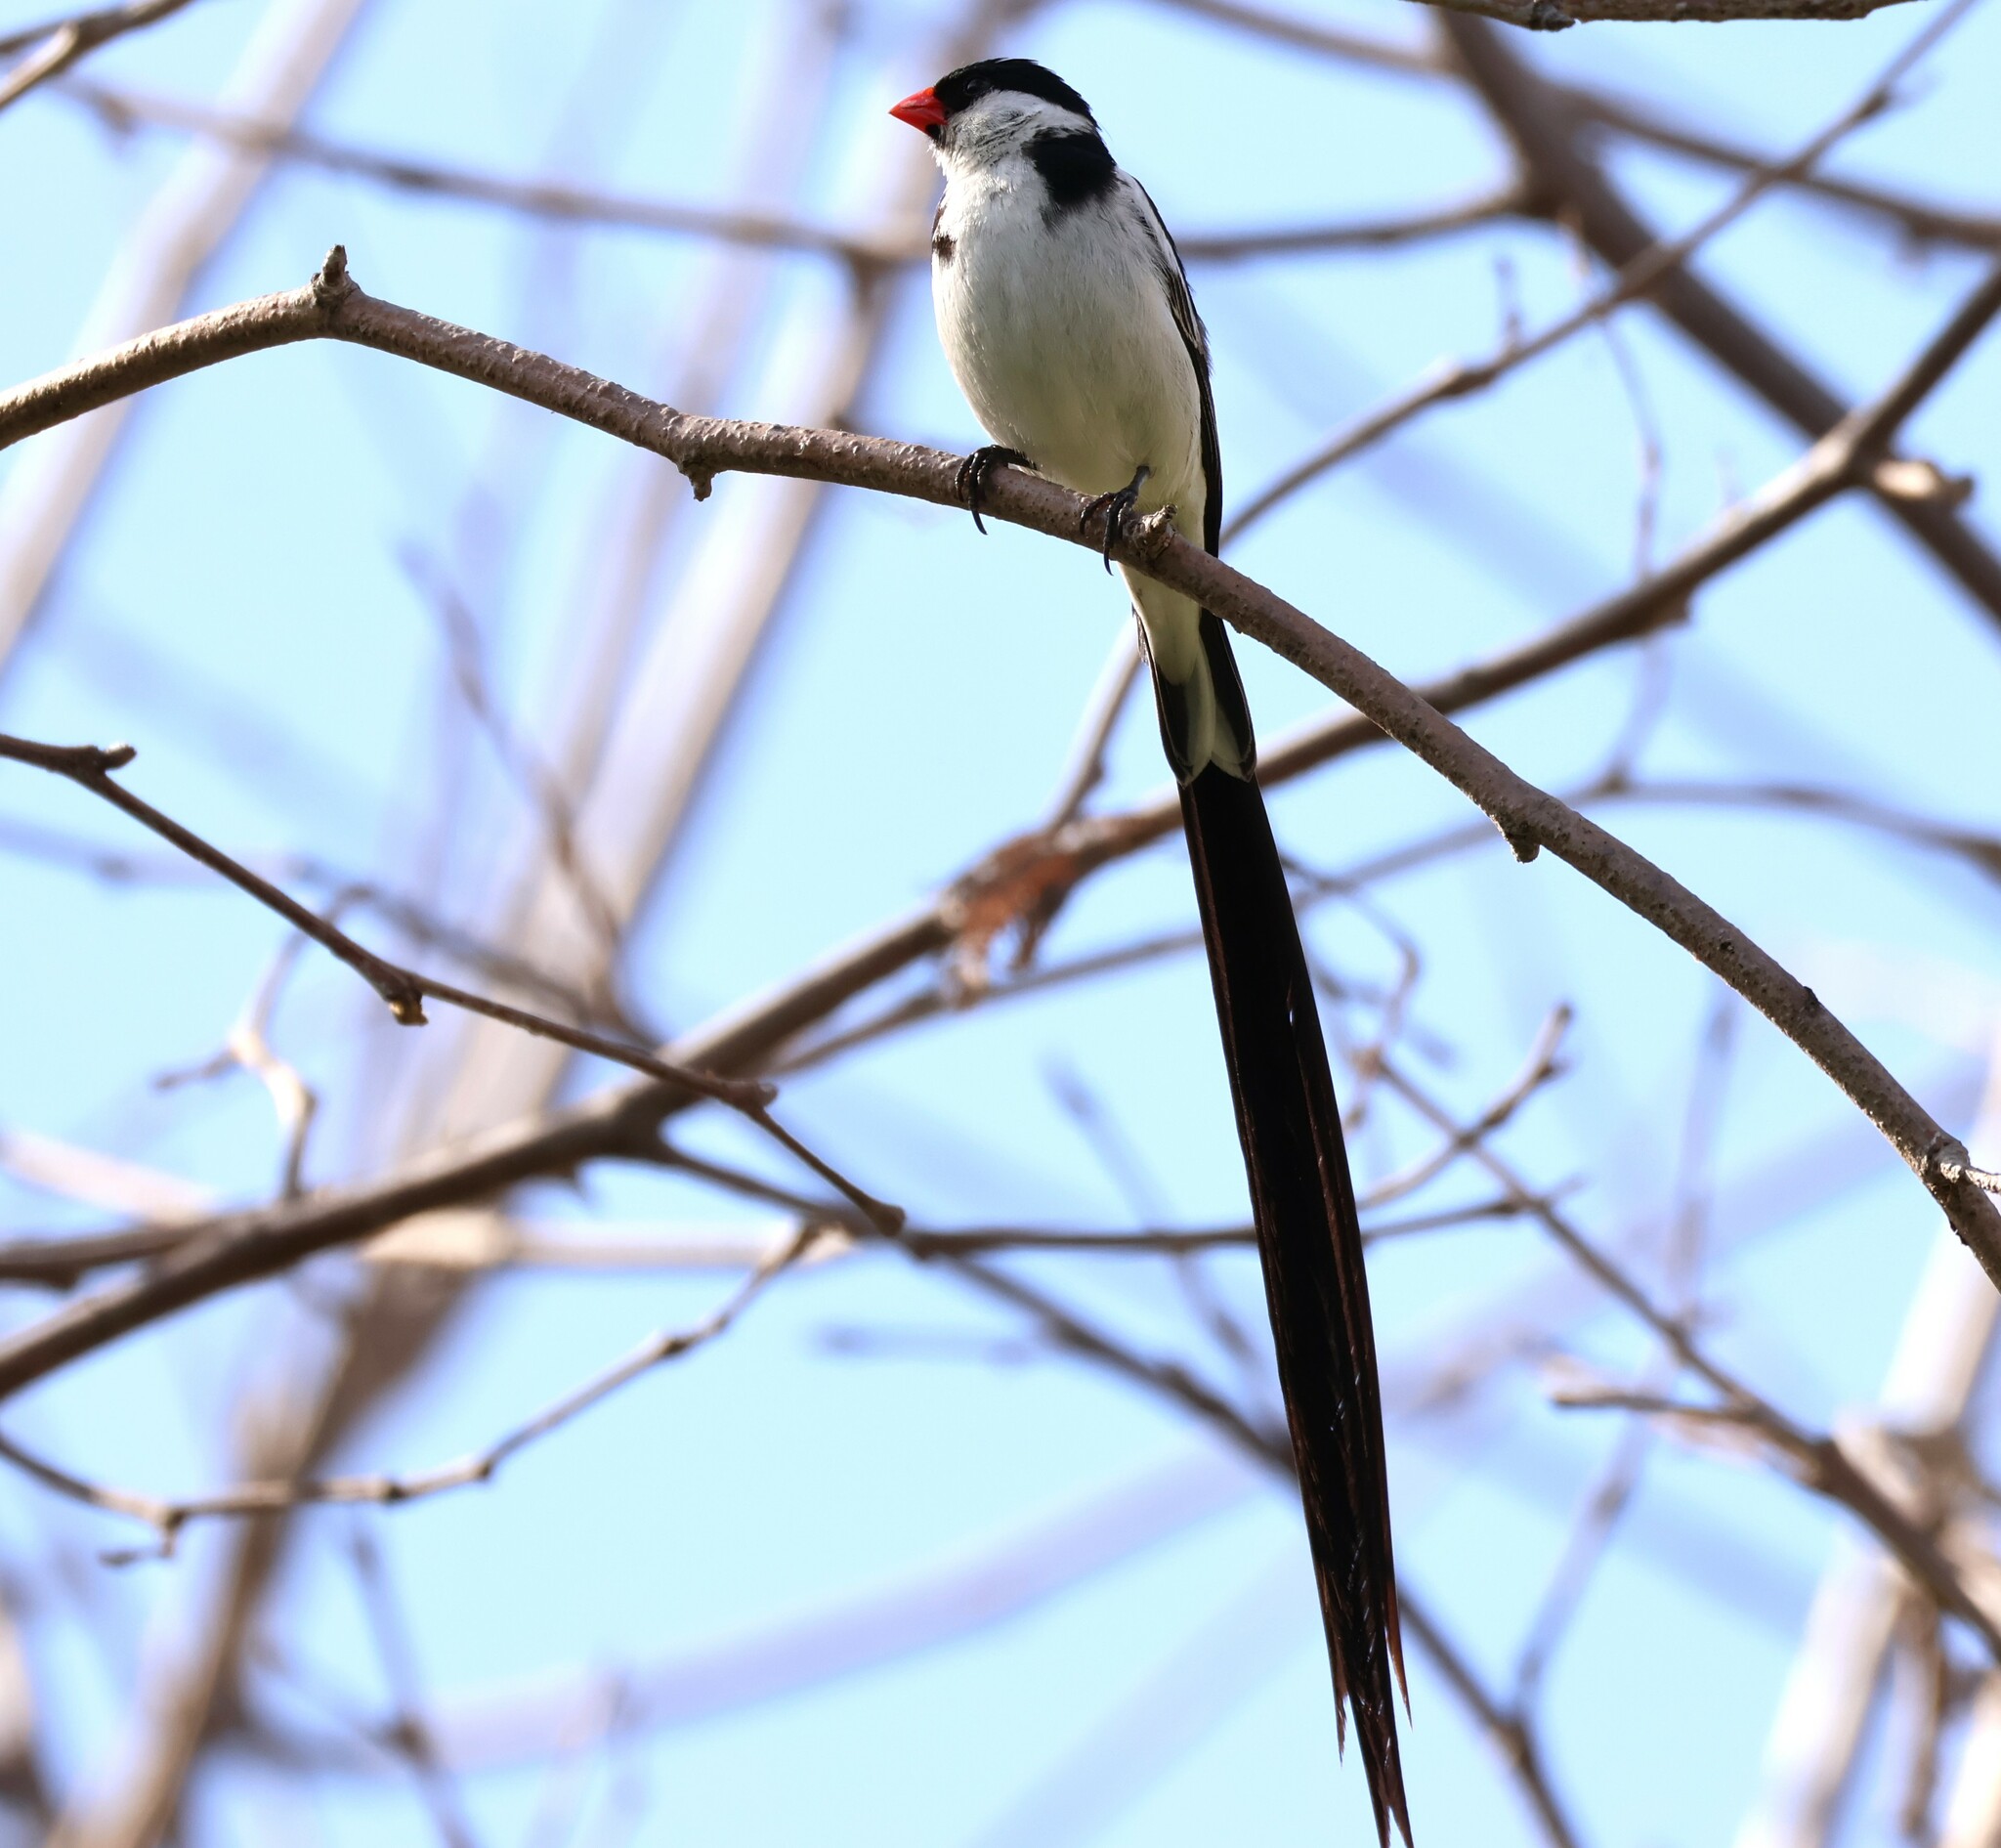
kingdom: Animalia
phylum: Chordata
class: Aves
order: Passeriformes
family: Viduidae
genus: Vidua
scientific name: Vidua macroura
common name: Pin-tailed whydah
